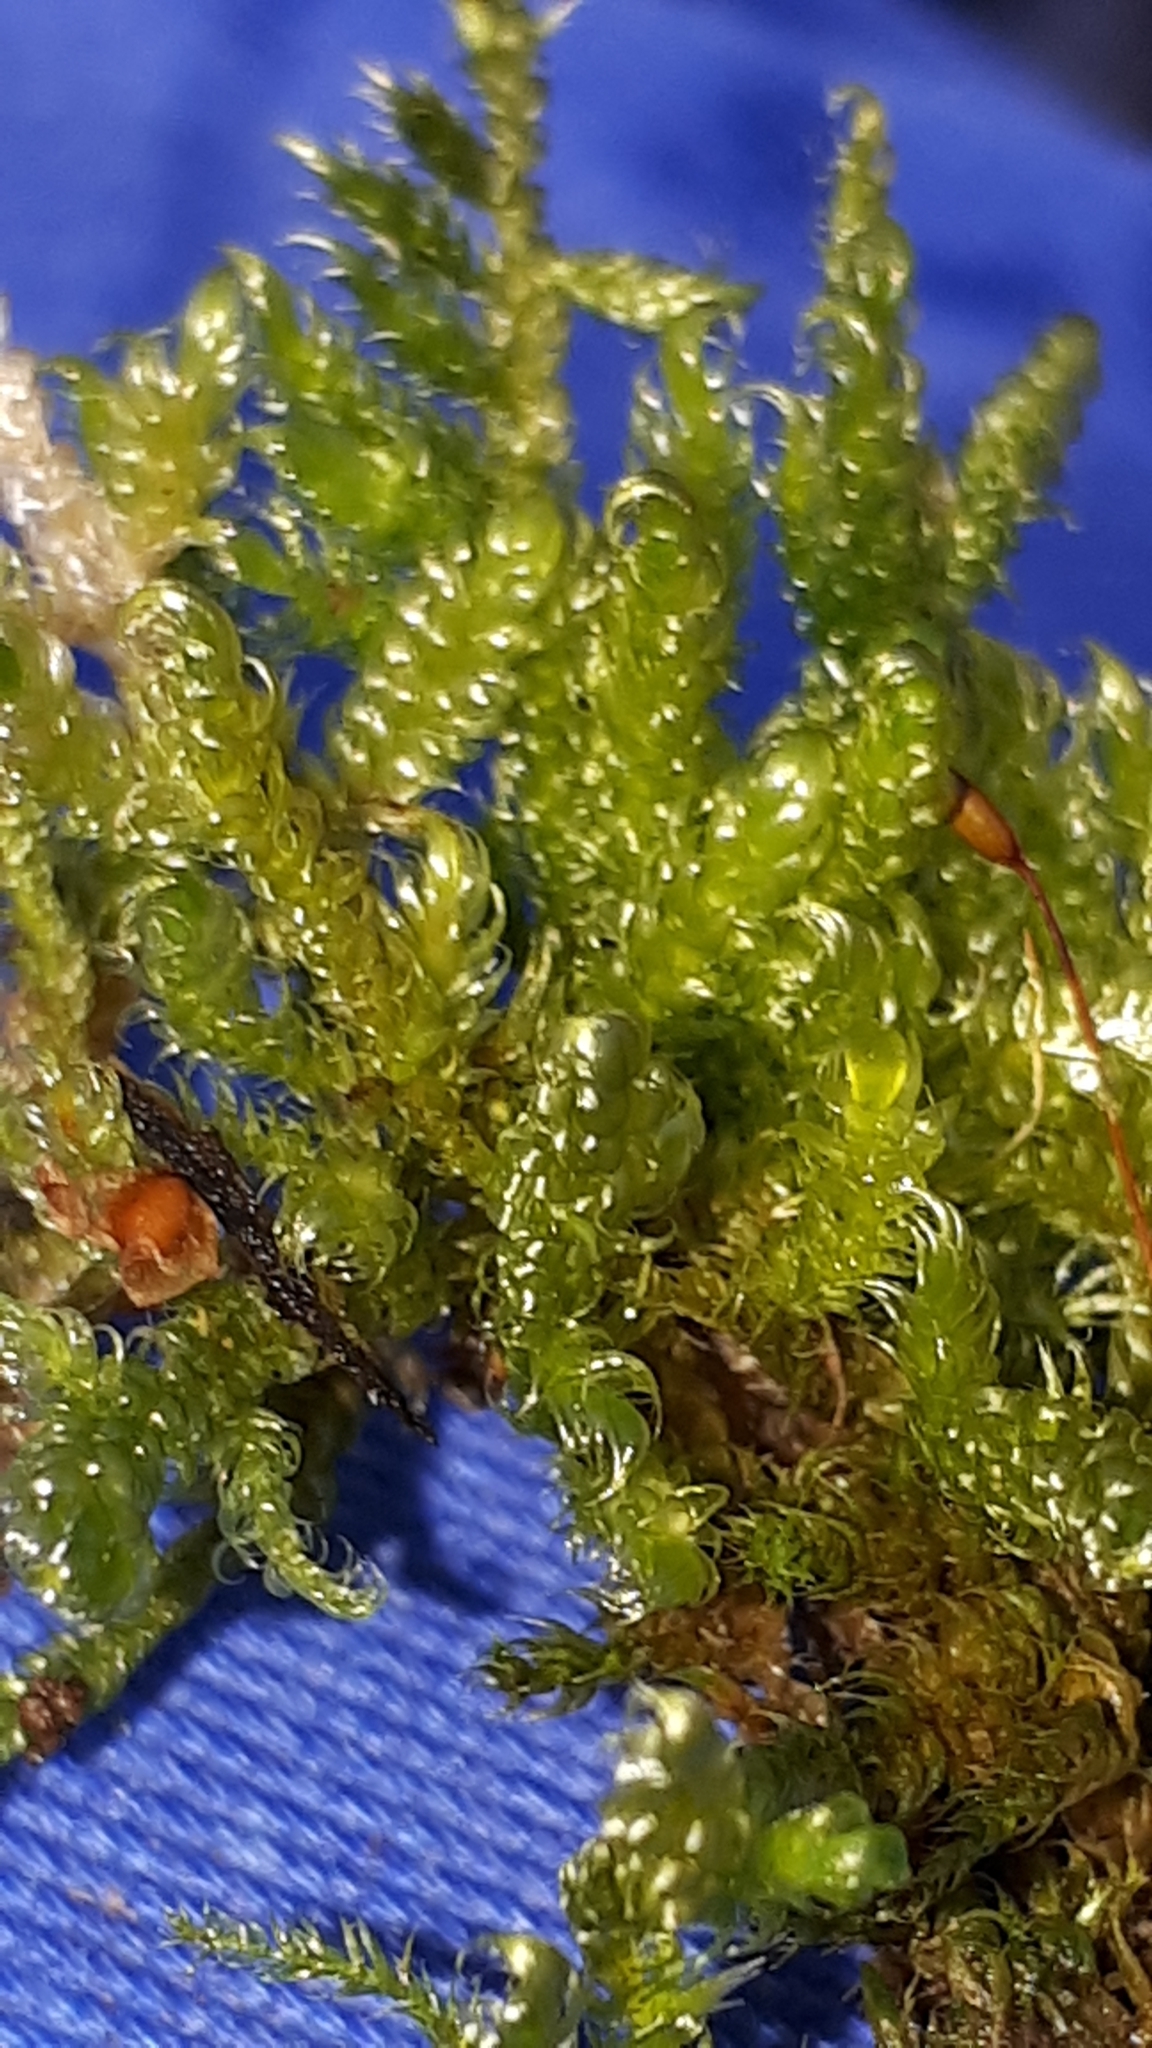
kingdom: Plantae
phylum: Bryophyta
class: Bryopsida
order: Hypnales
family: Hypnaceae
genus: Hypnum
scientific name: Hypnum cupressiforme
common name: Cypress-leaved plait-moss
